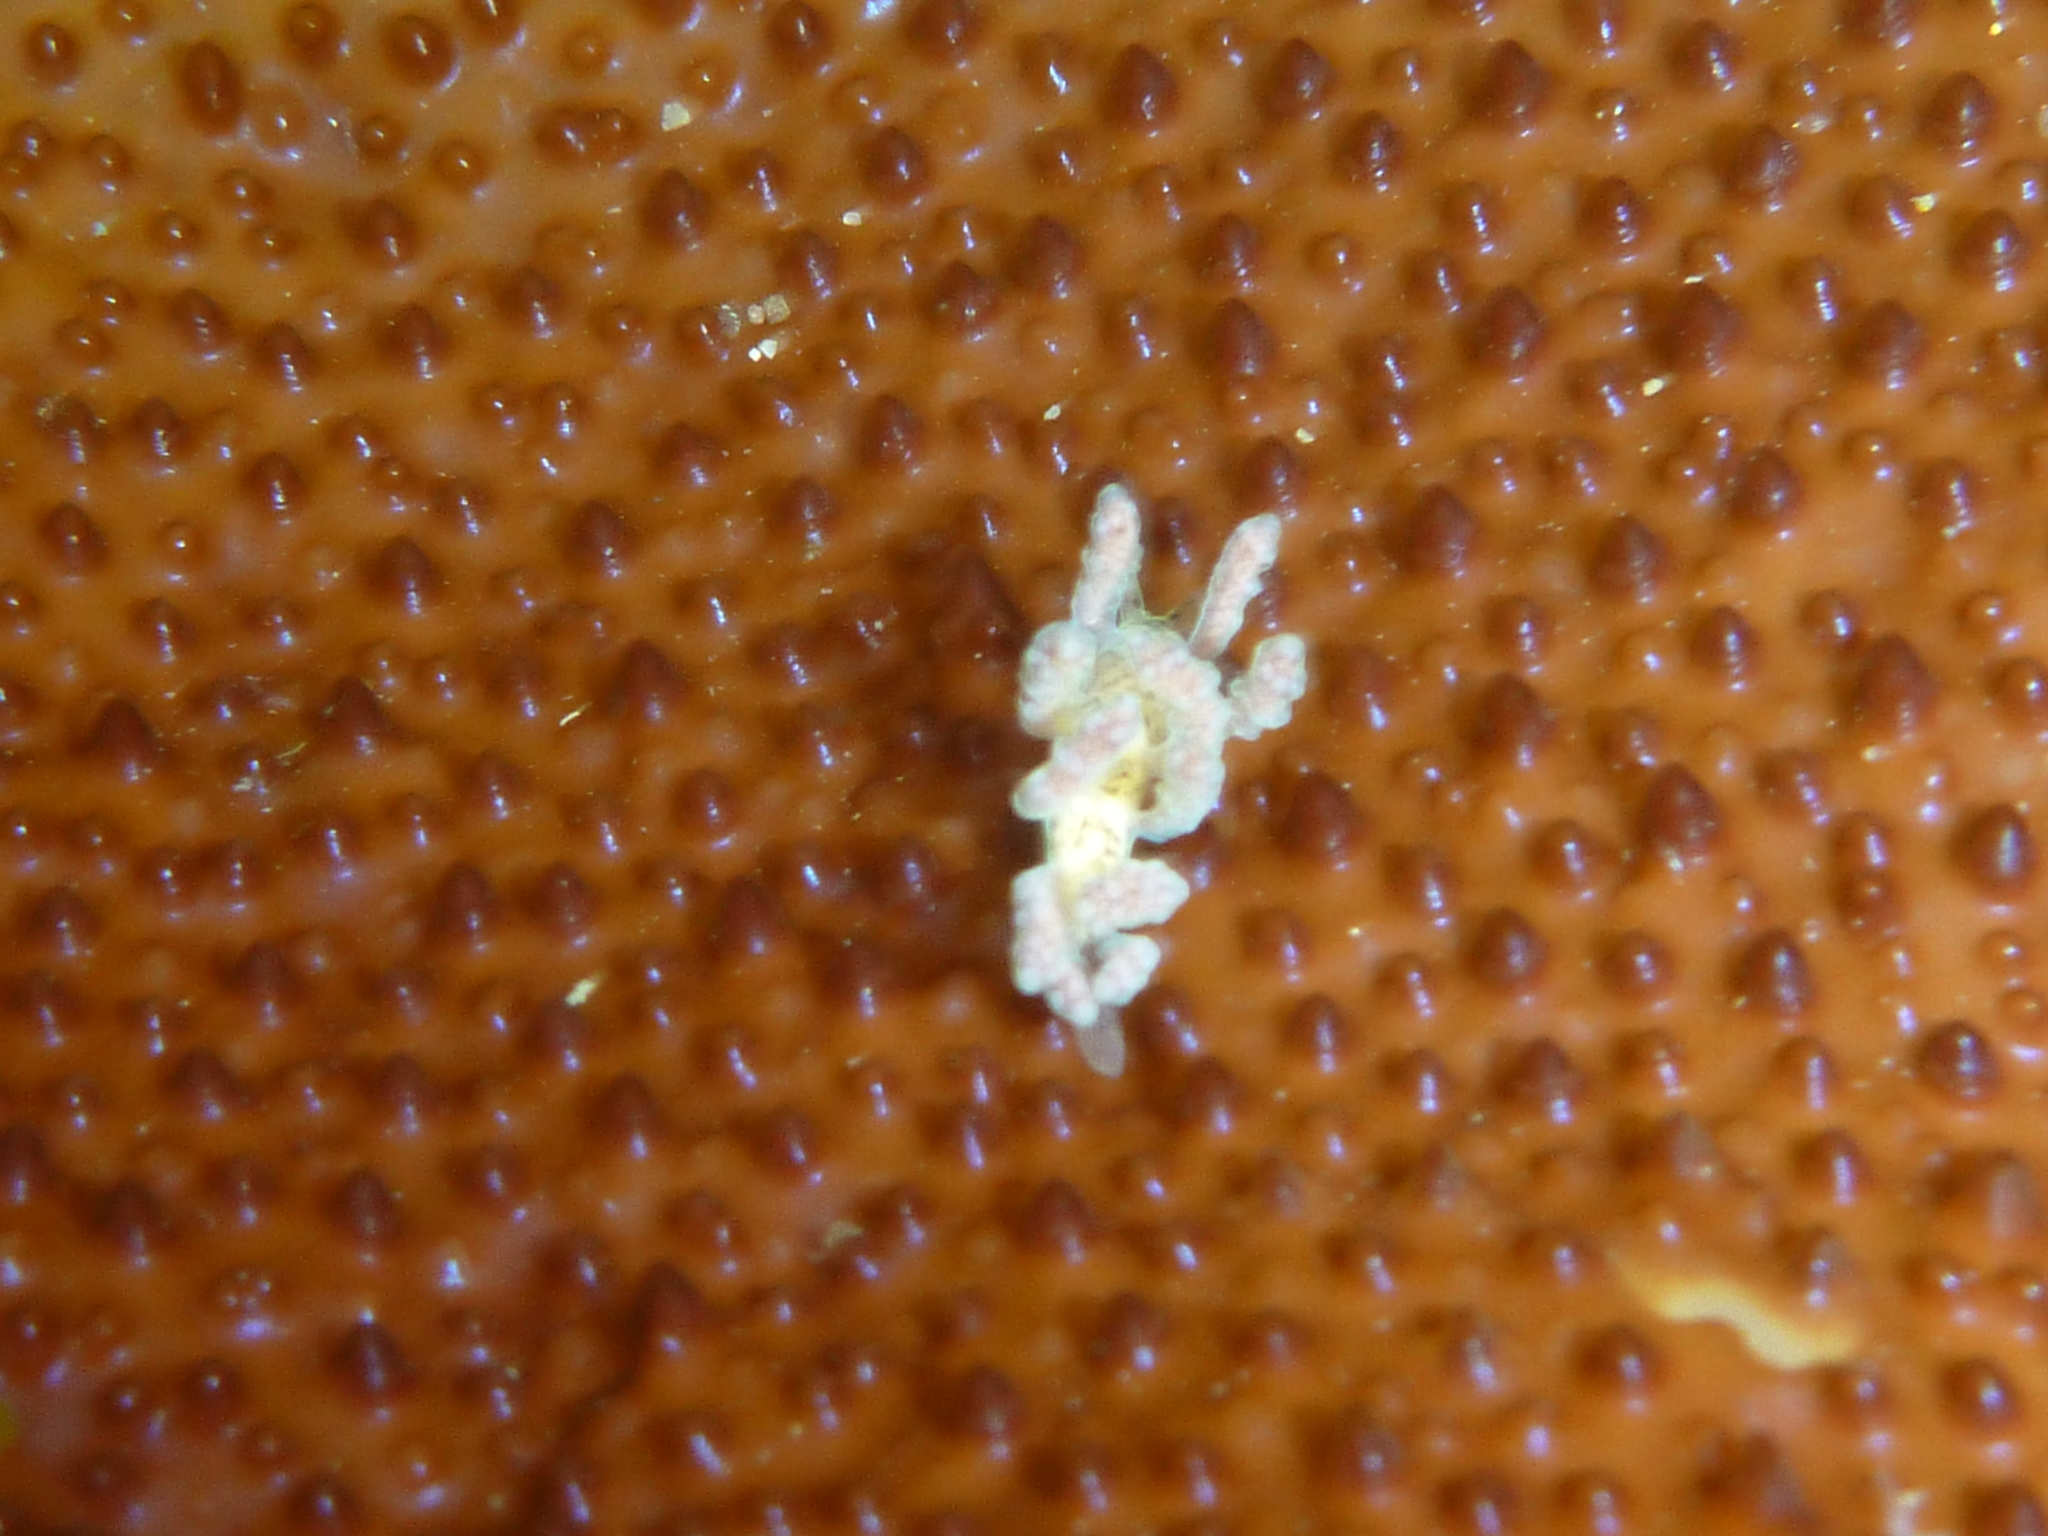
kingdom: Animalia
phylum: Mollusca
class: Gastropoda
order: Nudibranchia
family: Dotidae
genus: Doto
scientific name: Doto columbiana
